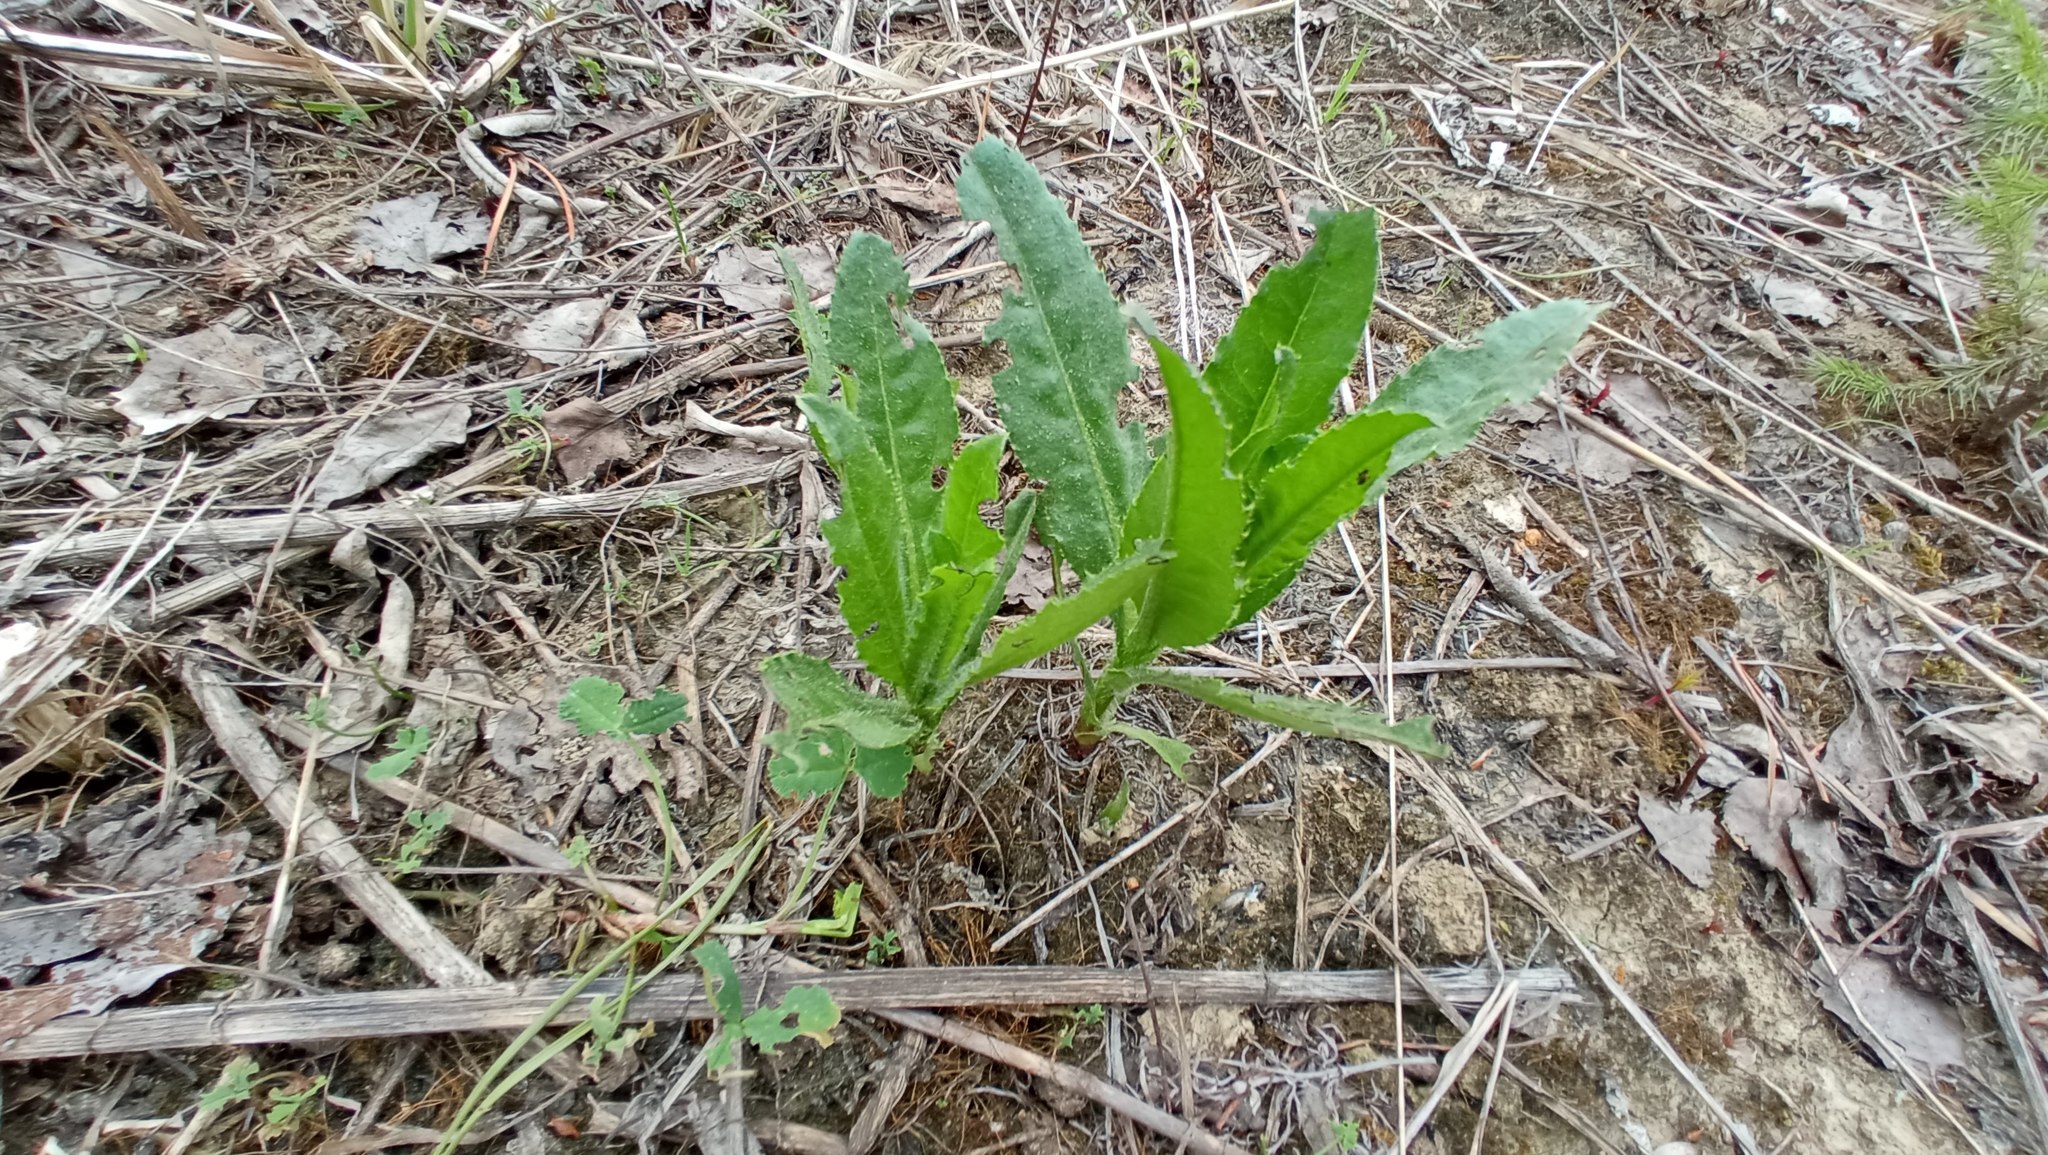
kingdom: Plantae
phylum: Tracheophyta
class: Magnoliopsida
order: Asterales
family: Asteraceae
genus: Cirsium
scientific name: Cirsium arvense
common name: Creeping thistle
